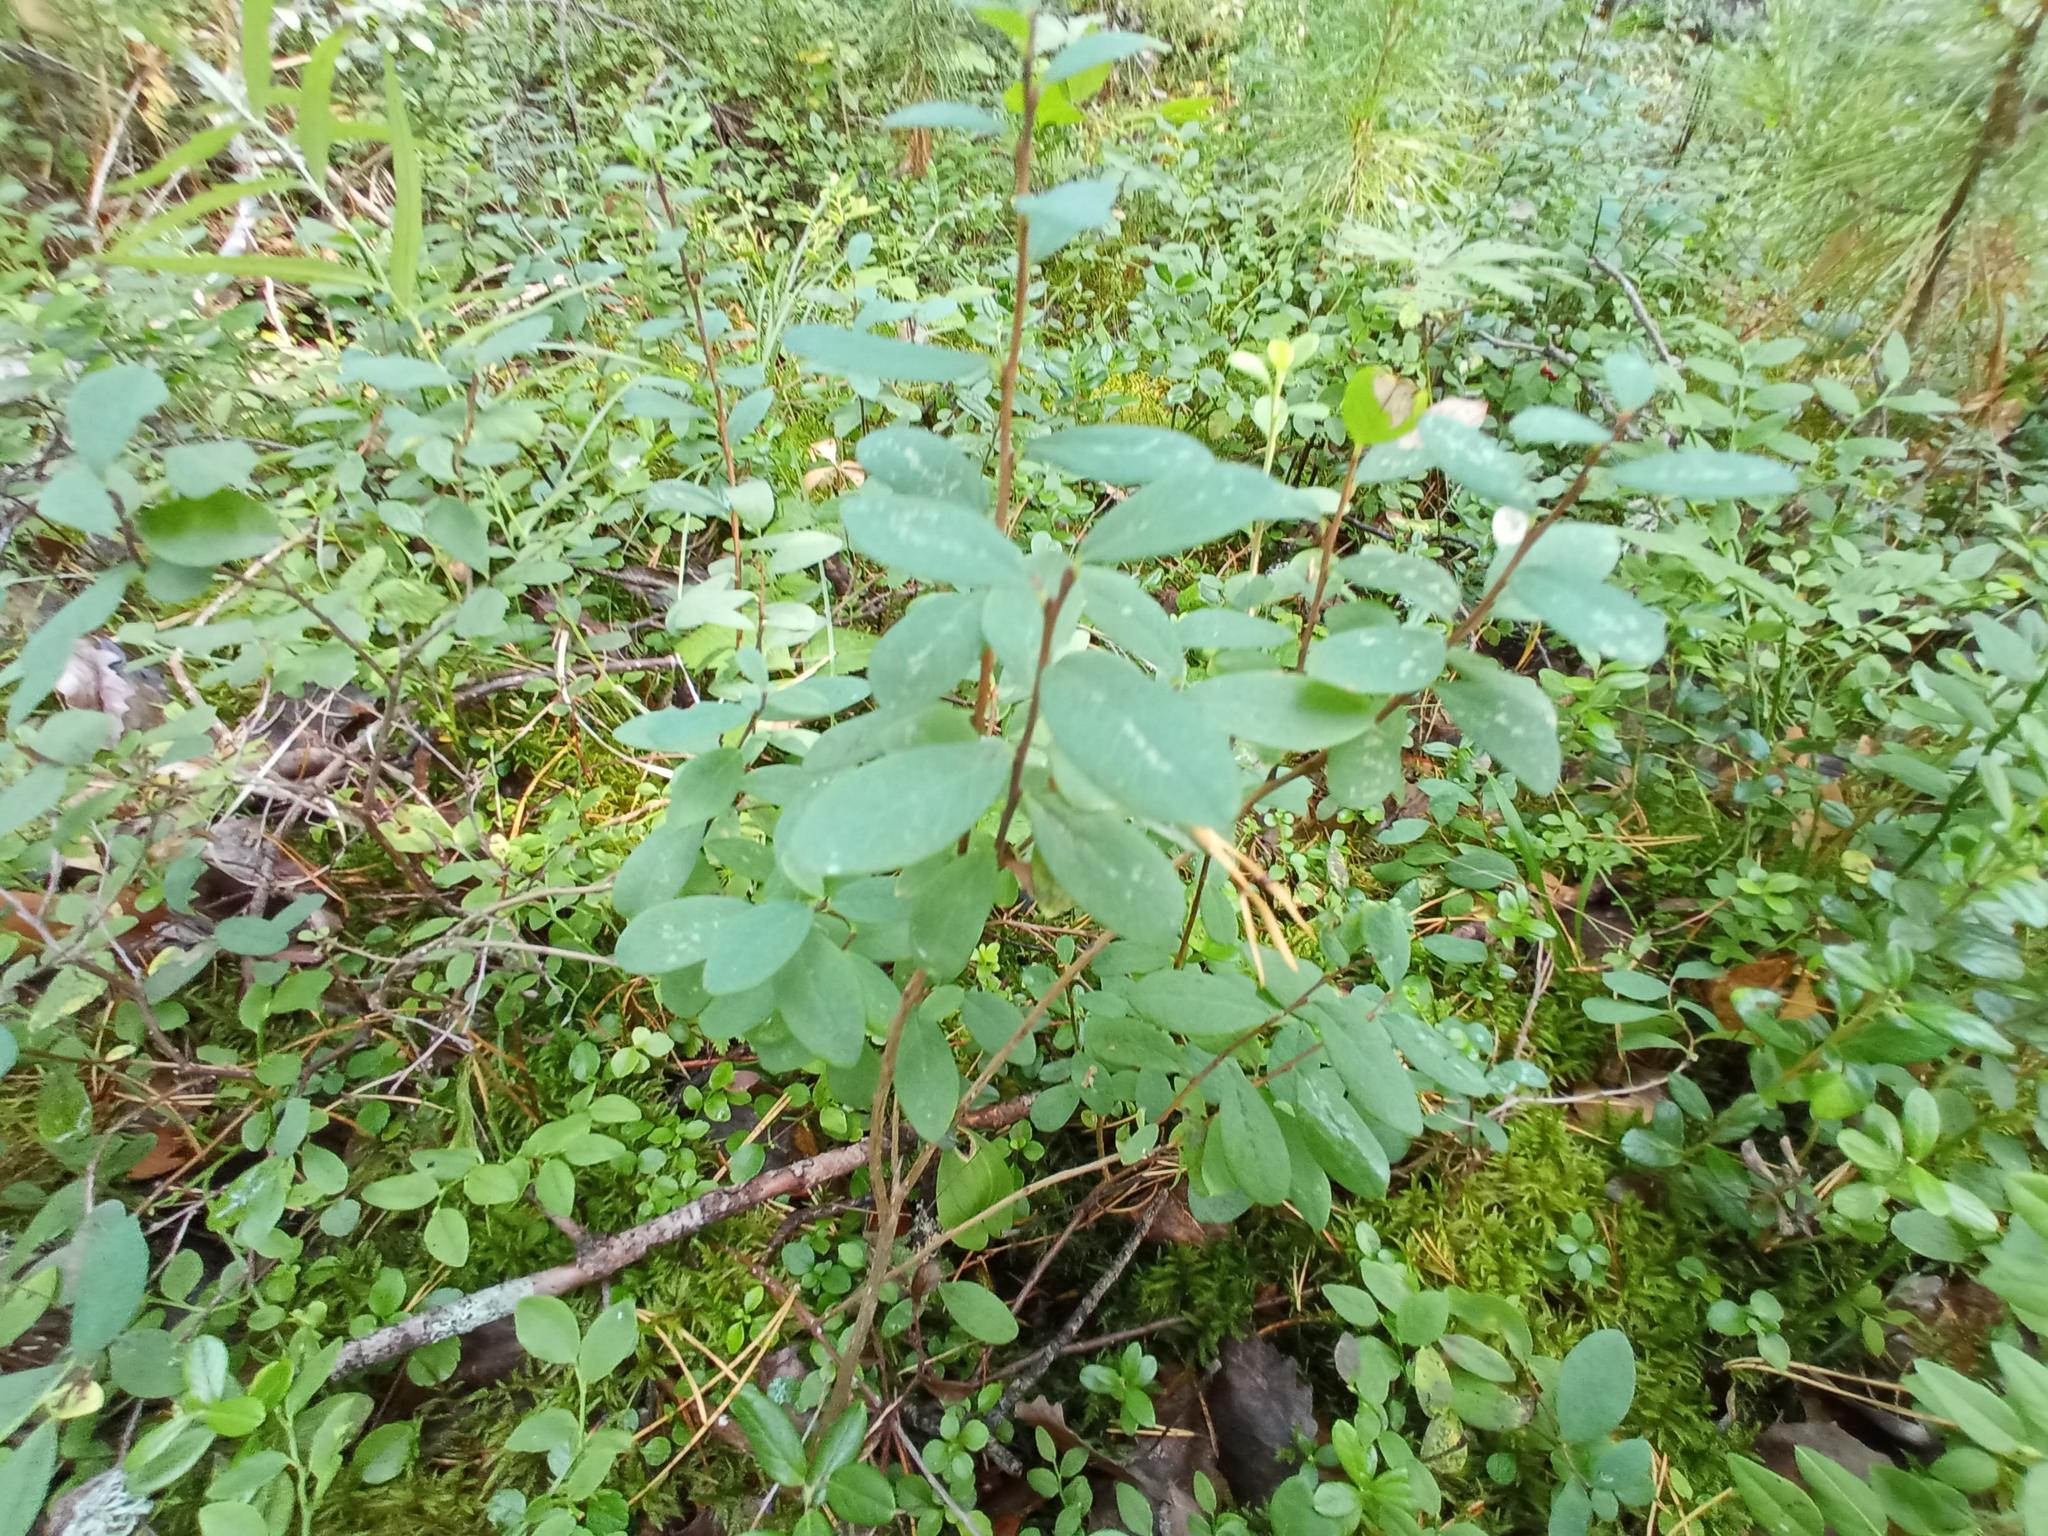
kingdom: Plantae
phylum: Tracheophyta
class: Magnoliopsida
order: Ericales
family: Ericaceae
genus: Vaccinium
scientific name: Vaccinium uliginosum
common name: Bog bilberry
